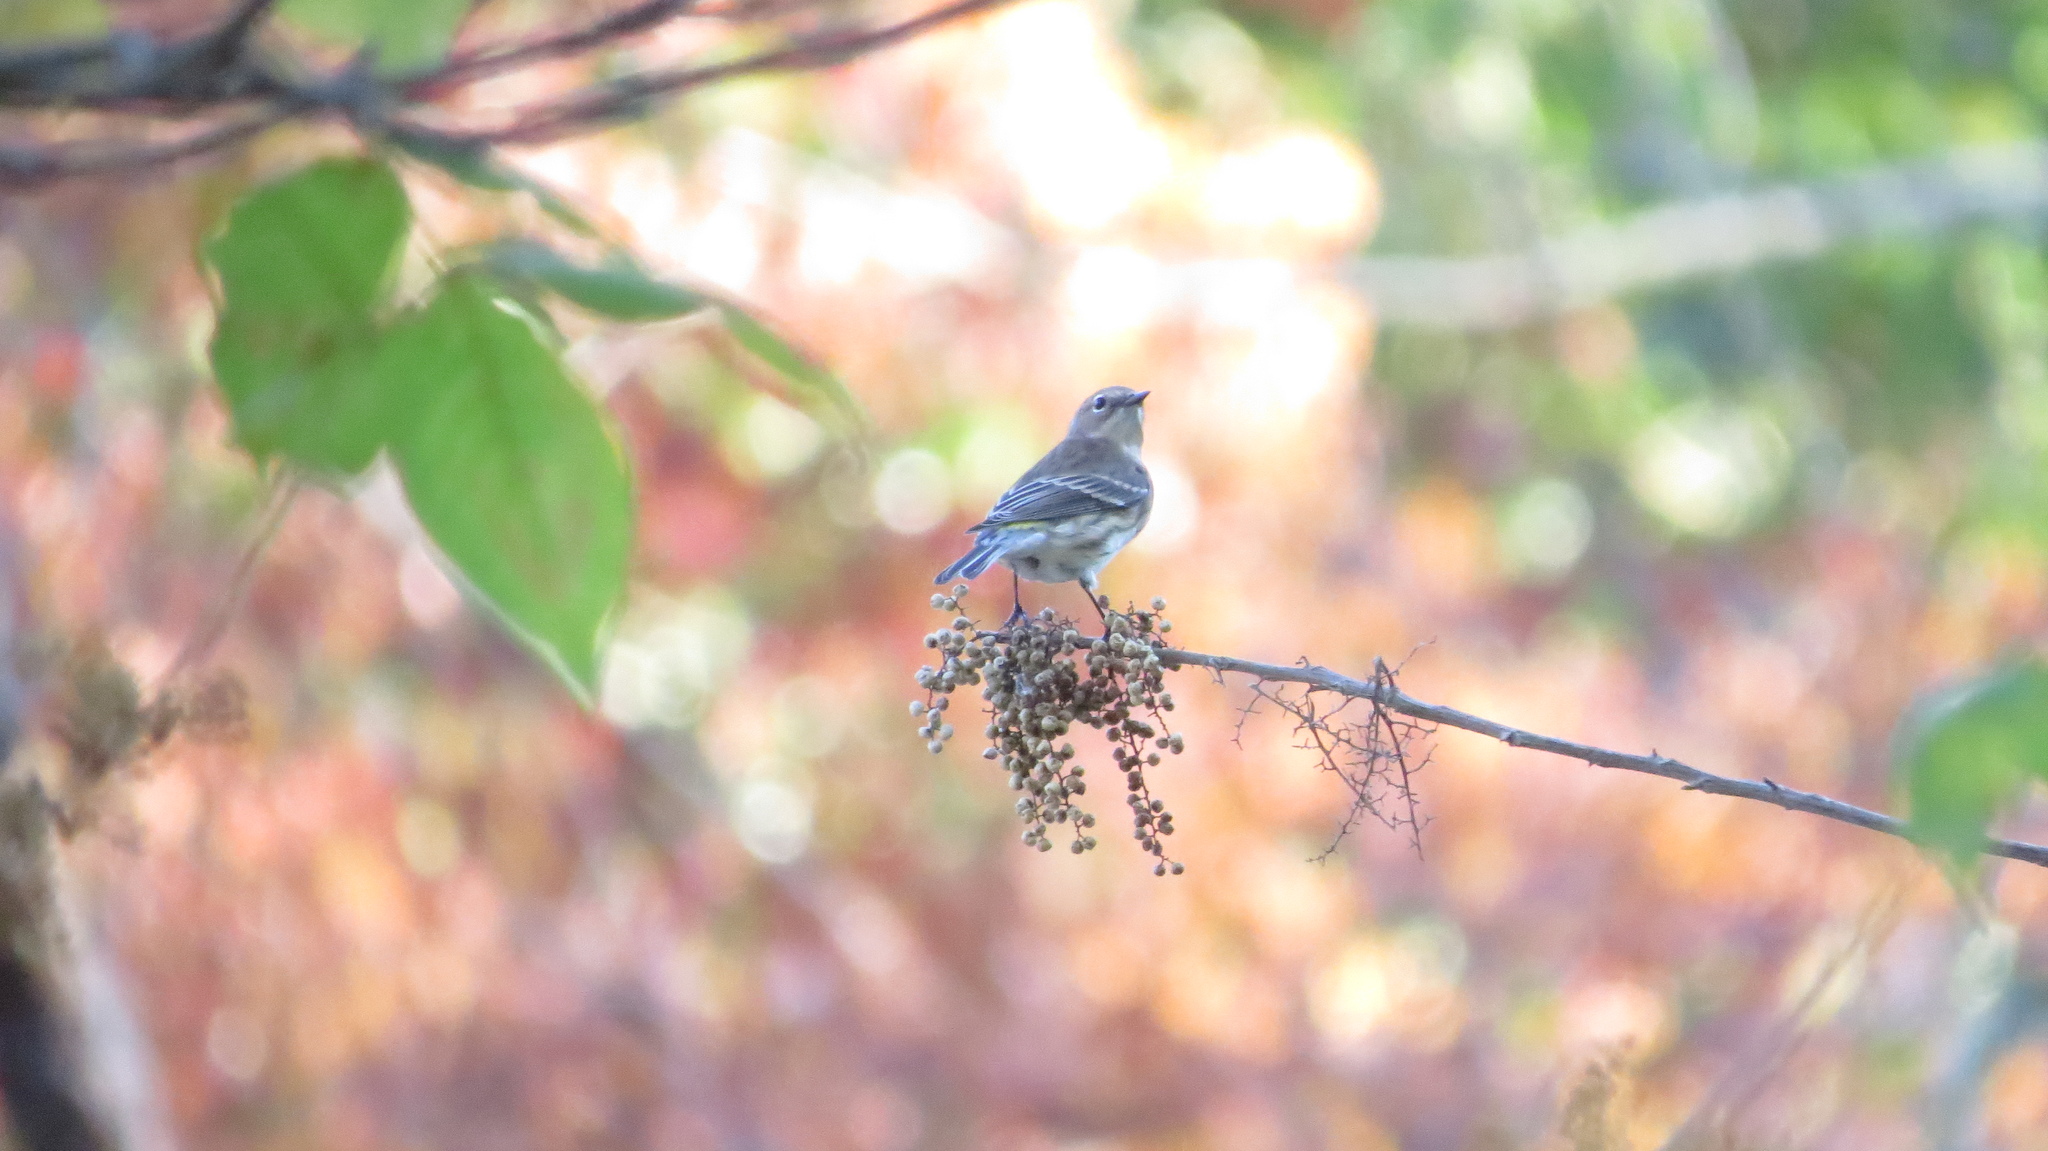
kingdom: Animalia
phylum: Chordata
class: Aves
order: Passeriformes
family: Parulidae
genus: Setophaga
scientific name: Setophaga coronata
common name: Myrtle warbler
